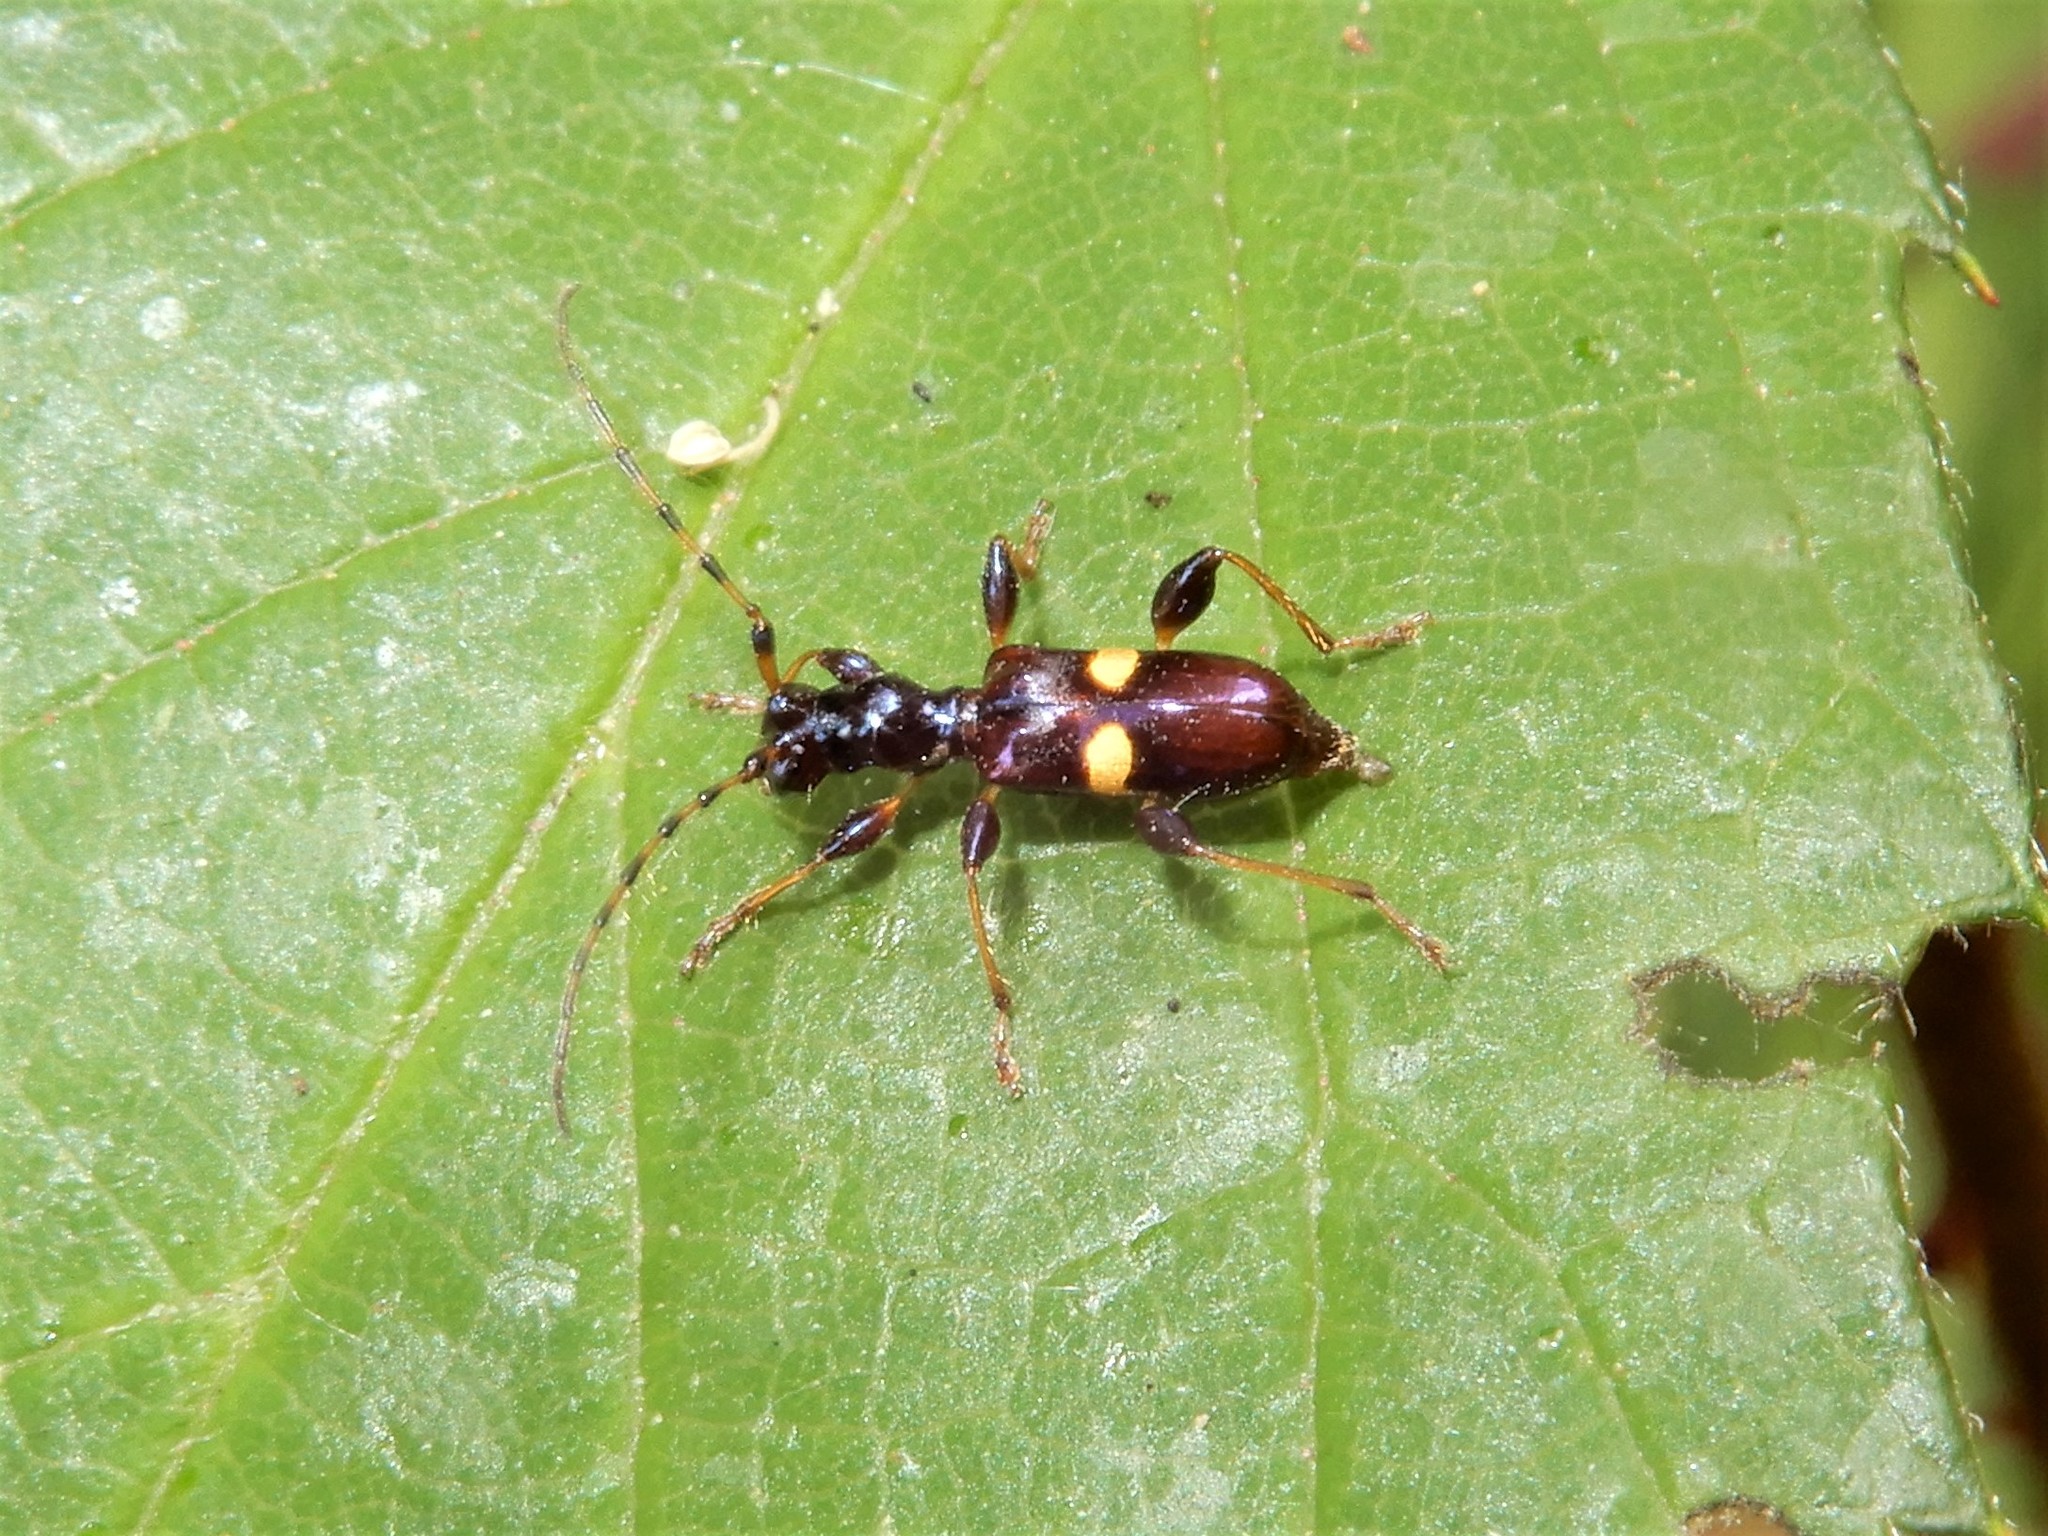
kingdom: Animalia
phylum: Arthropoda
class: Insecta
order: Coleoptera
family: Cerambycidae
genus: Zorion
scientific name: Zorion guttigerum
